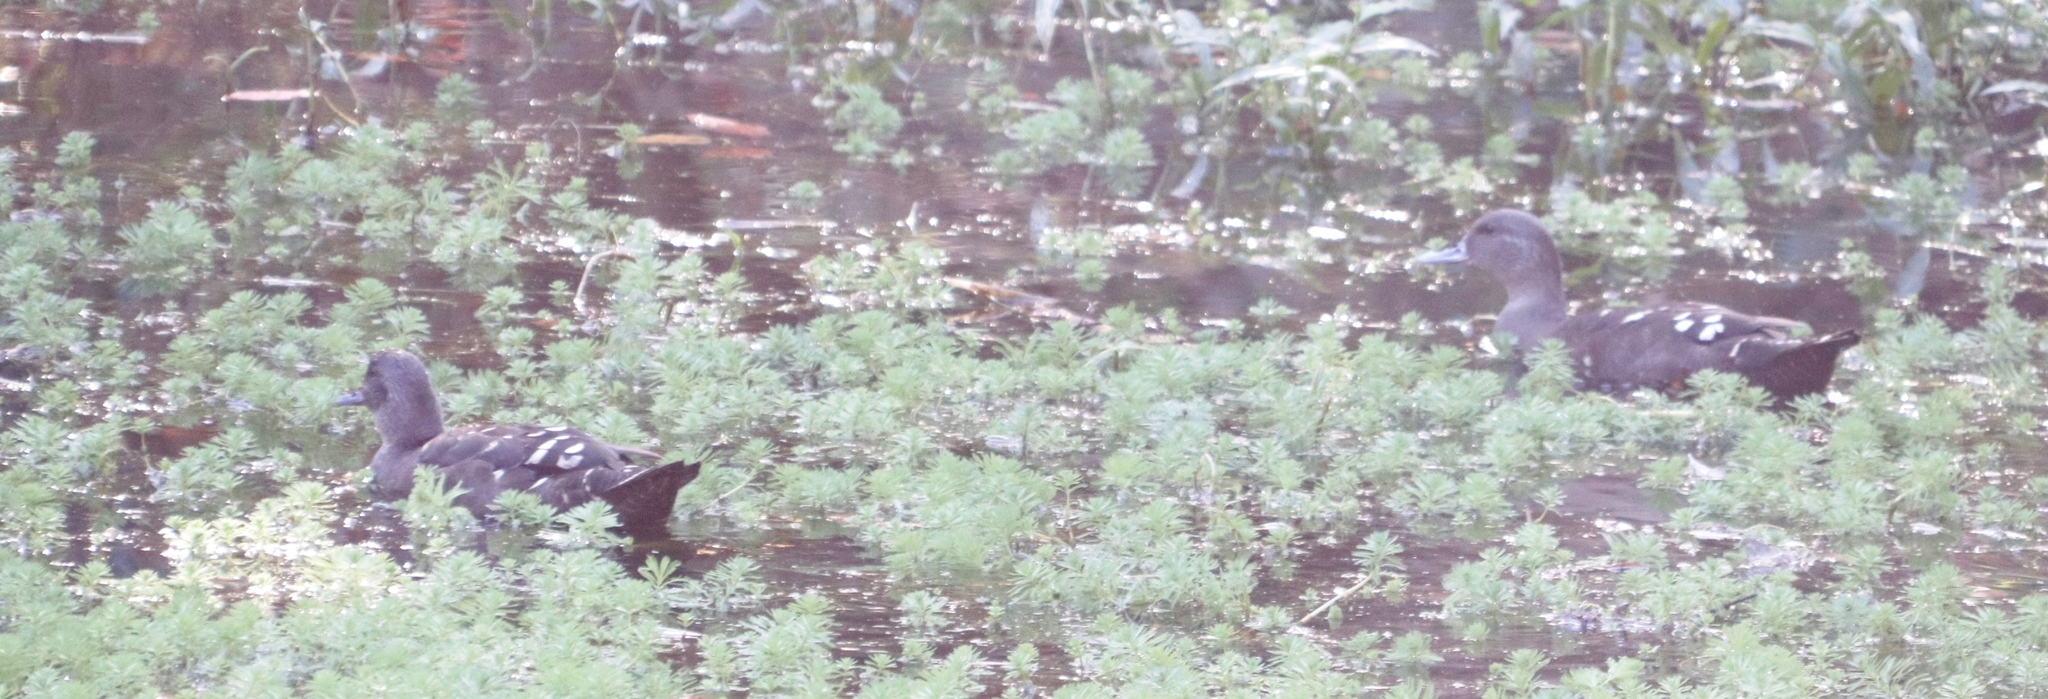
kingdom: Animalia
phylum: Chordata
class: Aves
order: Anseriformes
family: Anatidae
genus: Anas
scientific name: Anas sparsa
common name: African black duck
